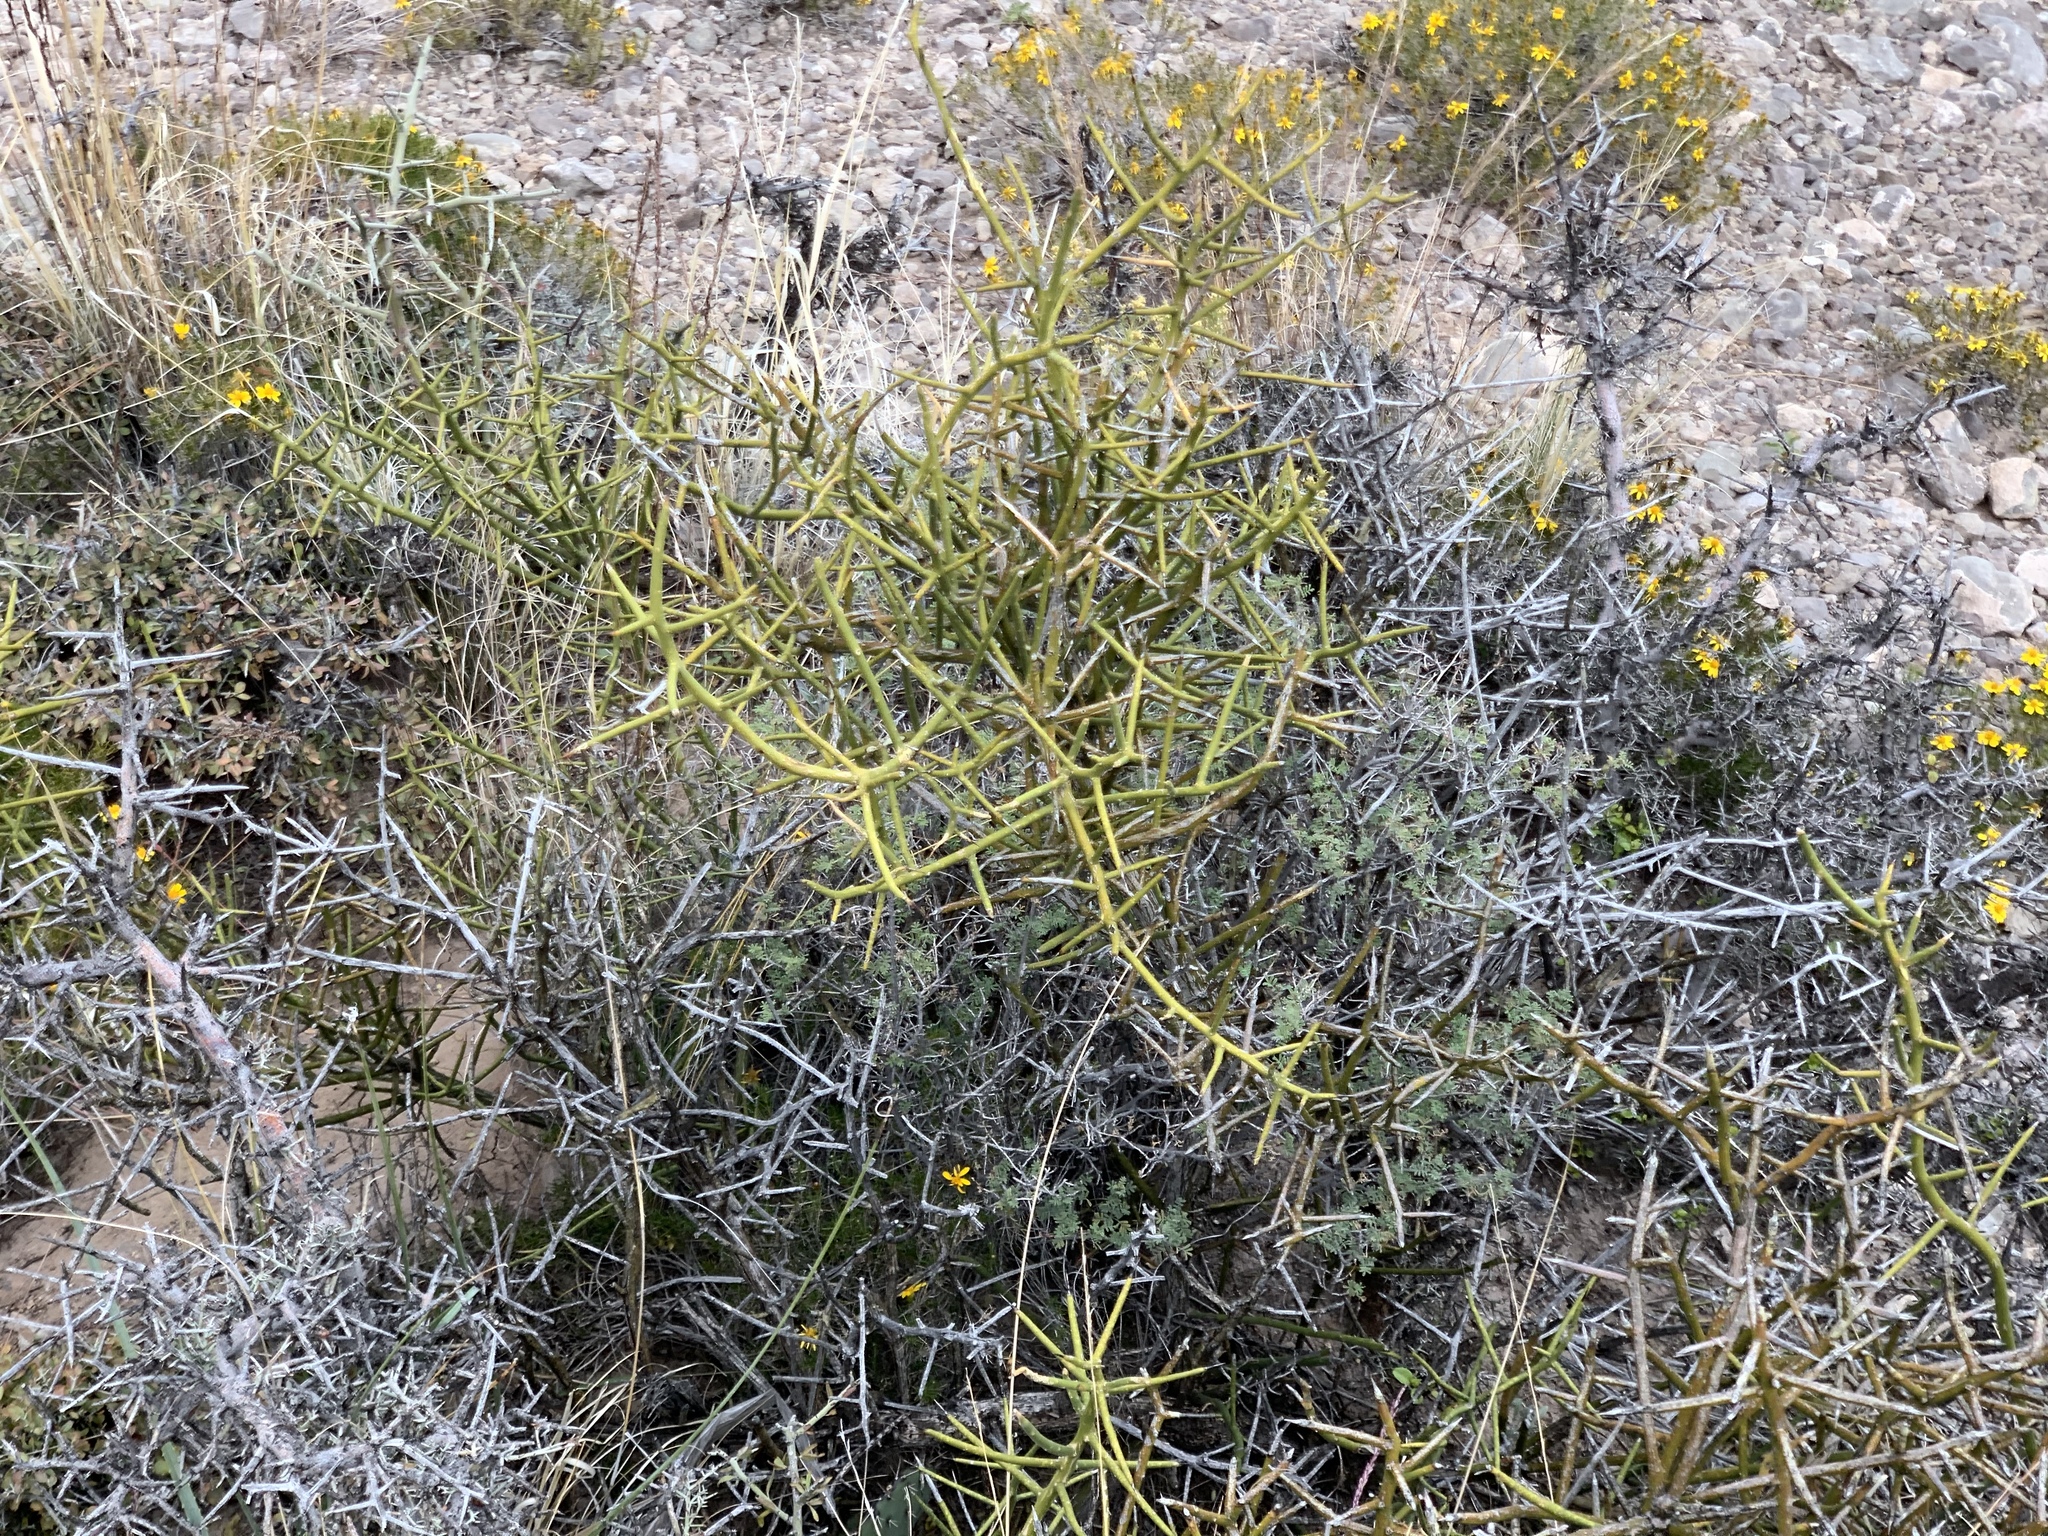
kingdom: Plantae
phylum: Tracheophyta
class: Magnoliopsida
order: Brassicales
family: Koeberliniaceae
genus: Koeberlinia
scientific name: Koeberlinia spinosa
